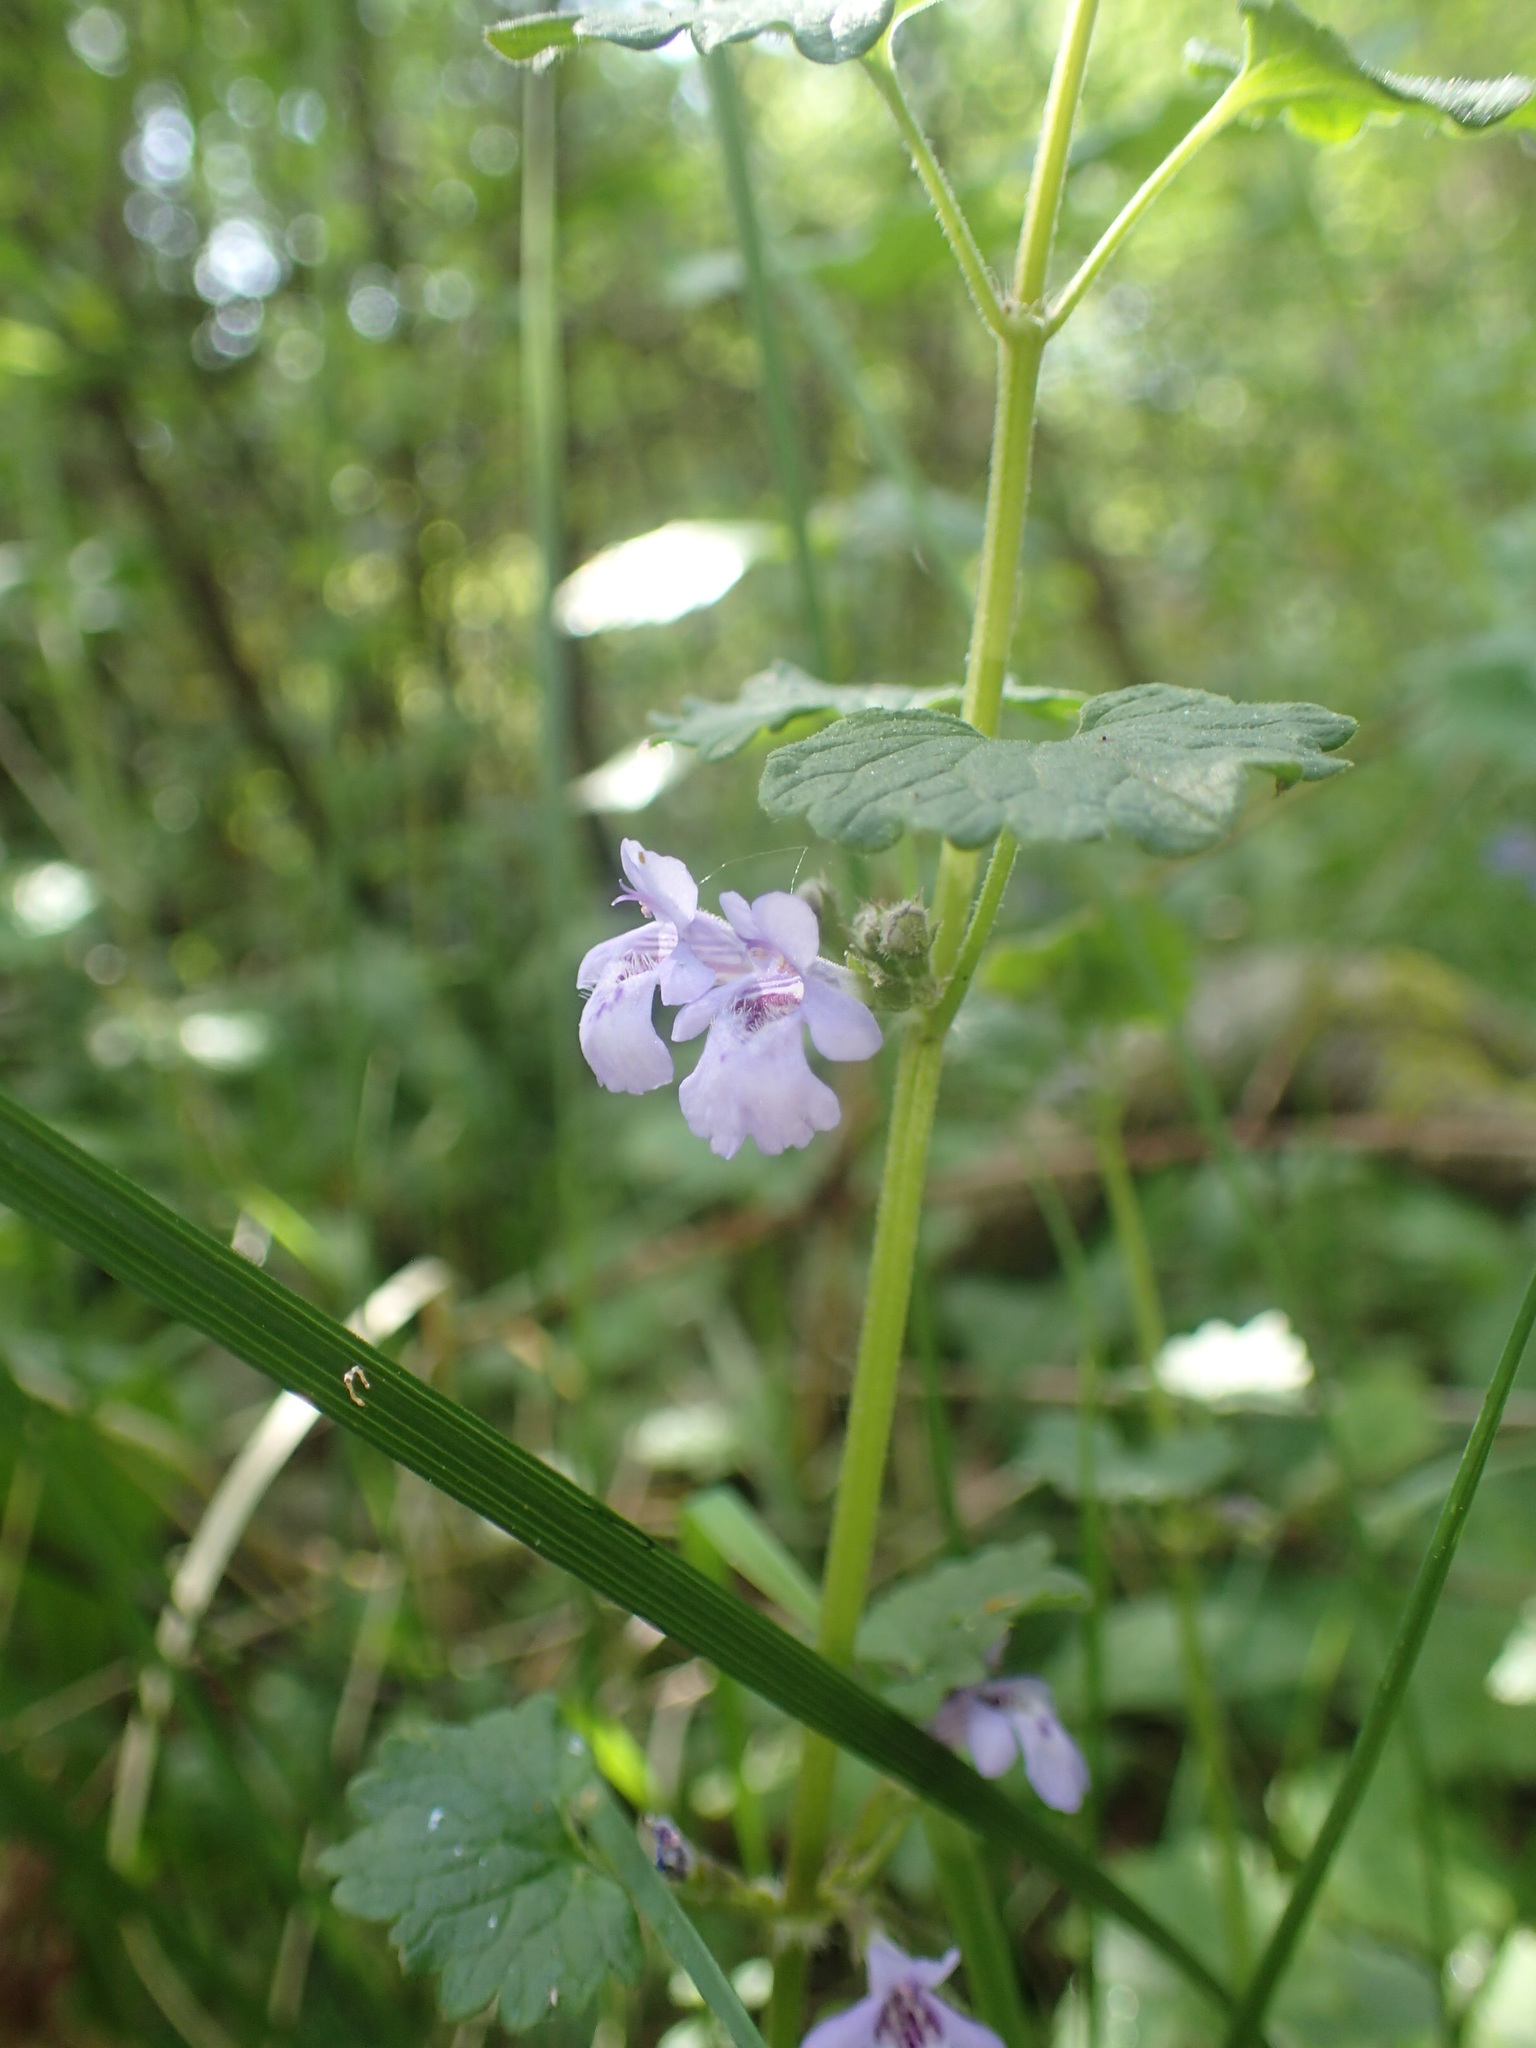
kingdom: Plantae
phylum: Tracheophyta
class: Magnoliopsida
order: Lamiales
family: Lamiaceae
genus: Glechoma
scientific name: Glechoma hederacea
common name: Ground ivy
